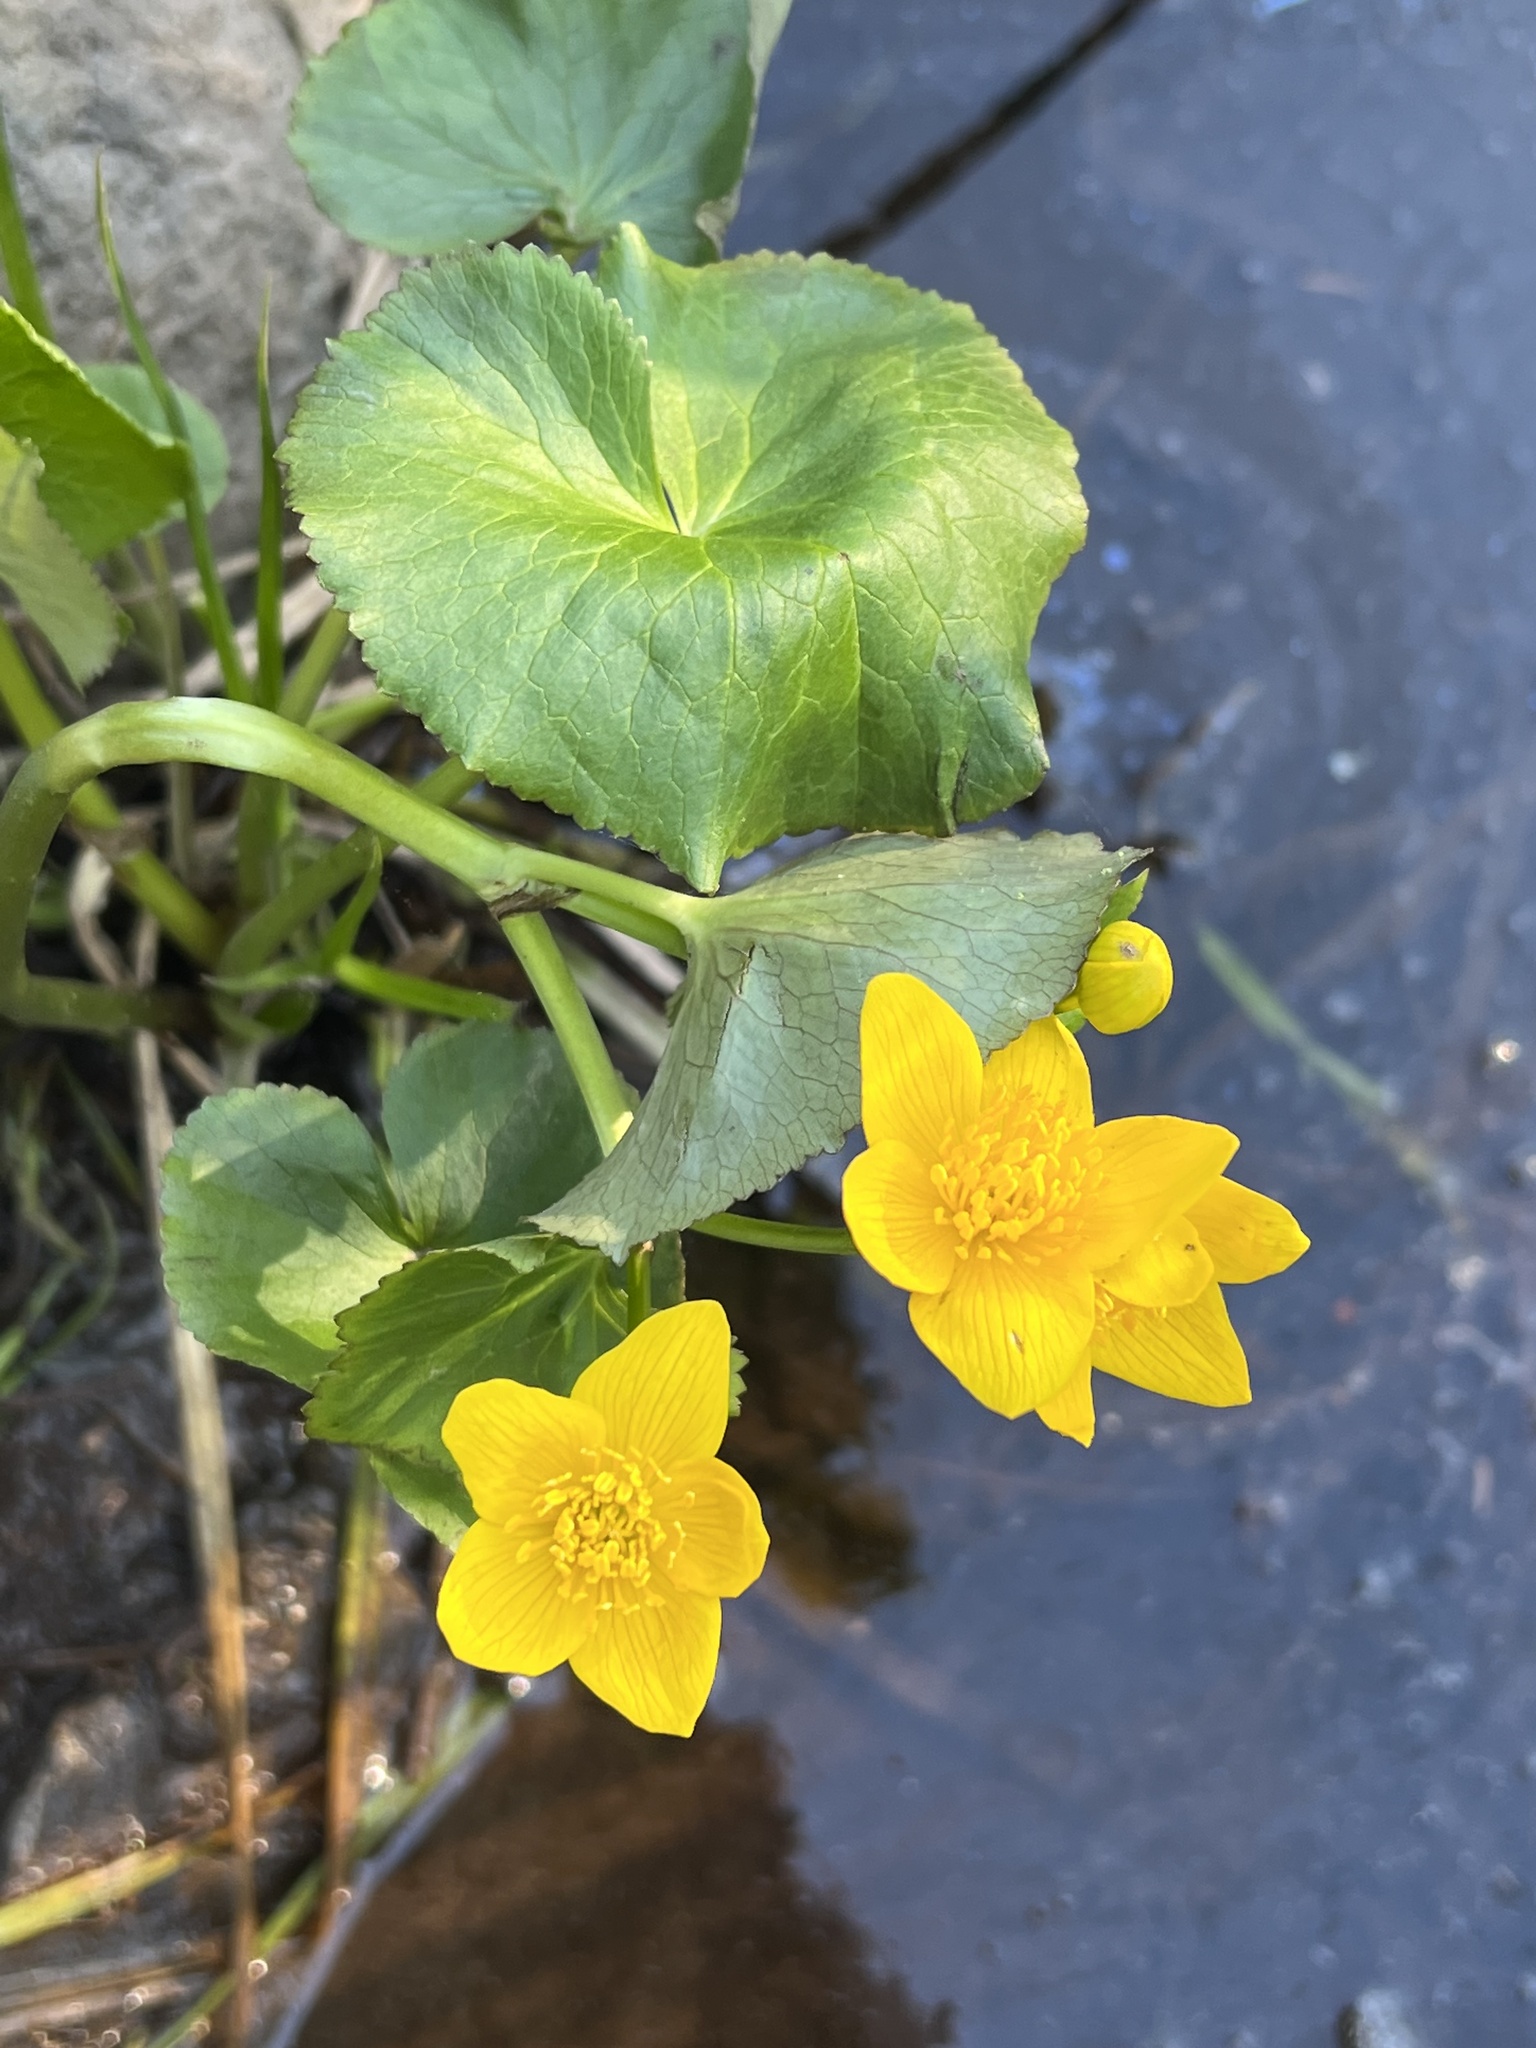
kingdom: Plantae
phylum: Tracheophyta
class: Magnoliopsida
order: Ranunculales
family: Ranunculaceae
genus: Caltha
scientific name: Caltha palustris
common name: Marsh marigold
